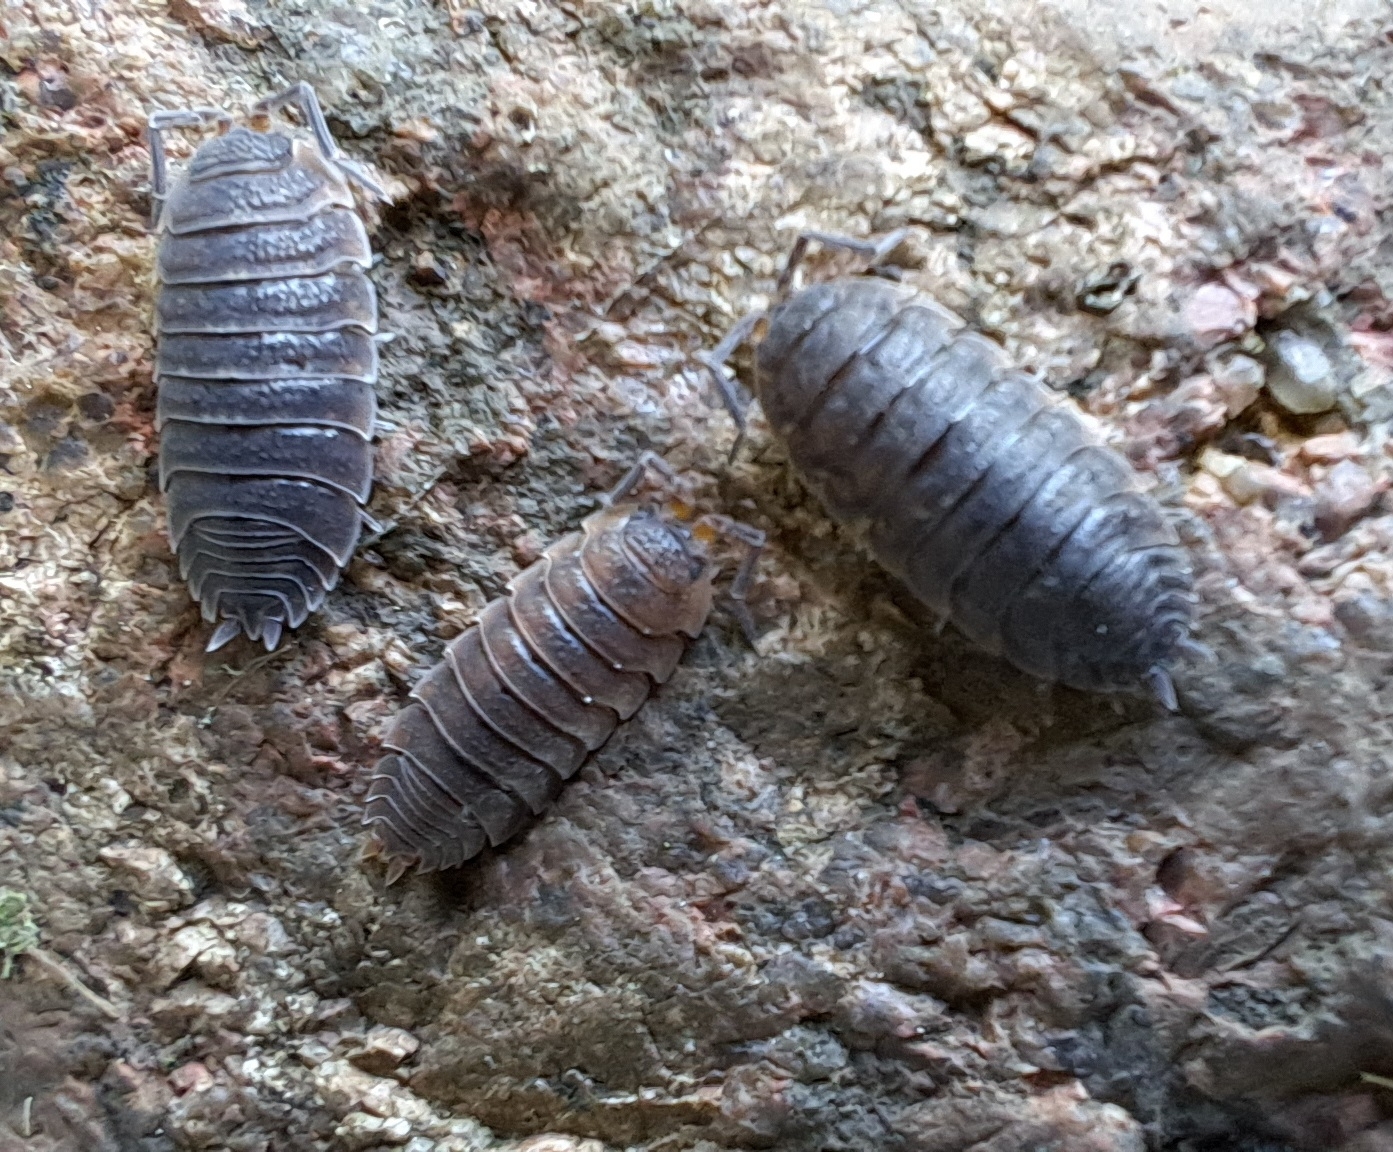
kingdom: Animalia
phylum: Arthropoda
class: Malacostraca
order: Isopoda
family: Porcellionidae
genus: Porcellio
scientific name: Porcellio scaber
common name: Common rough woodlouse
